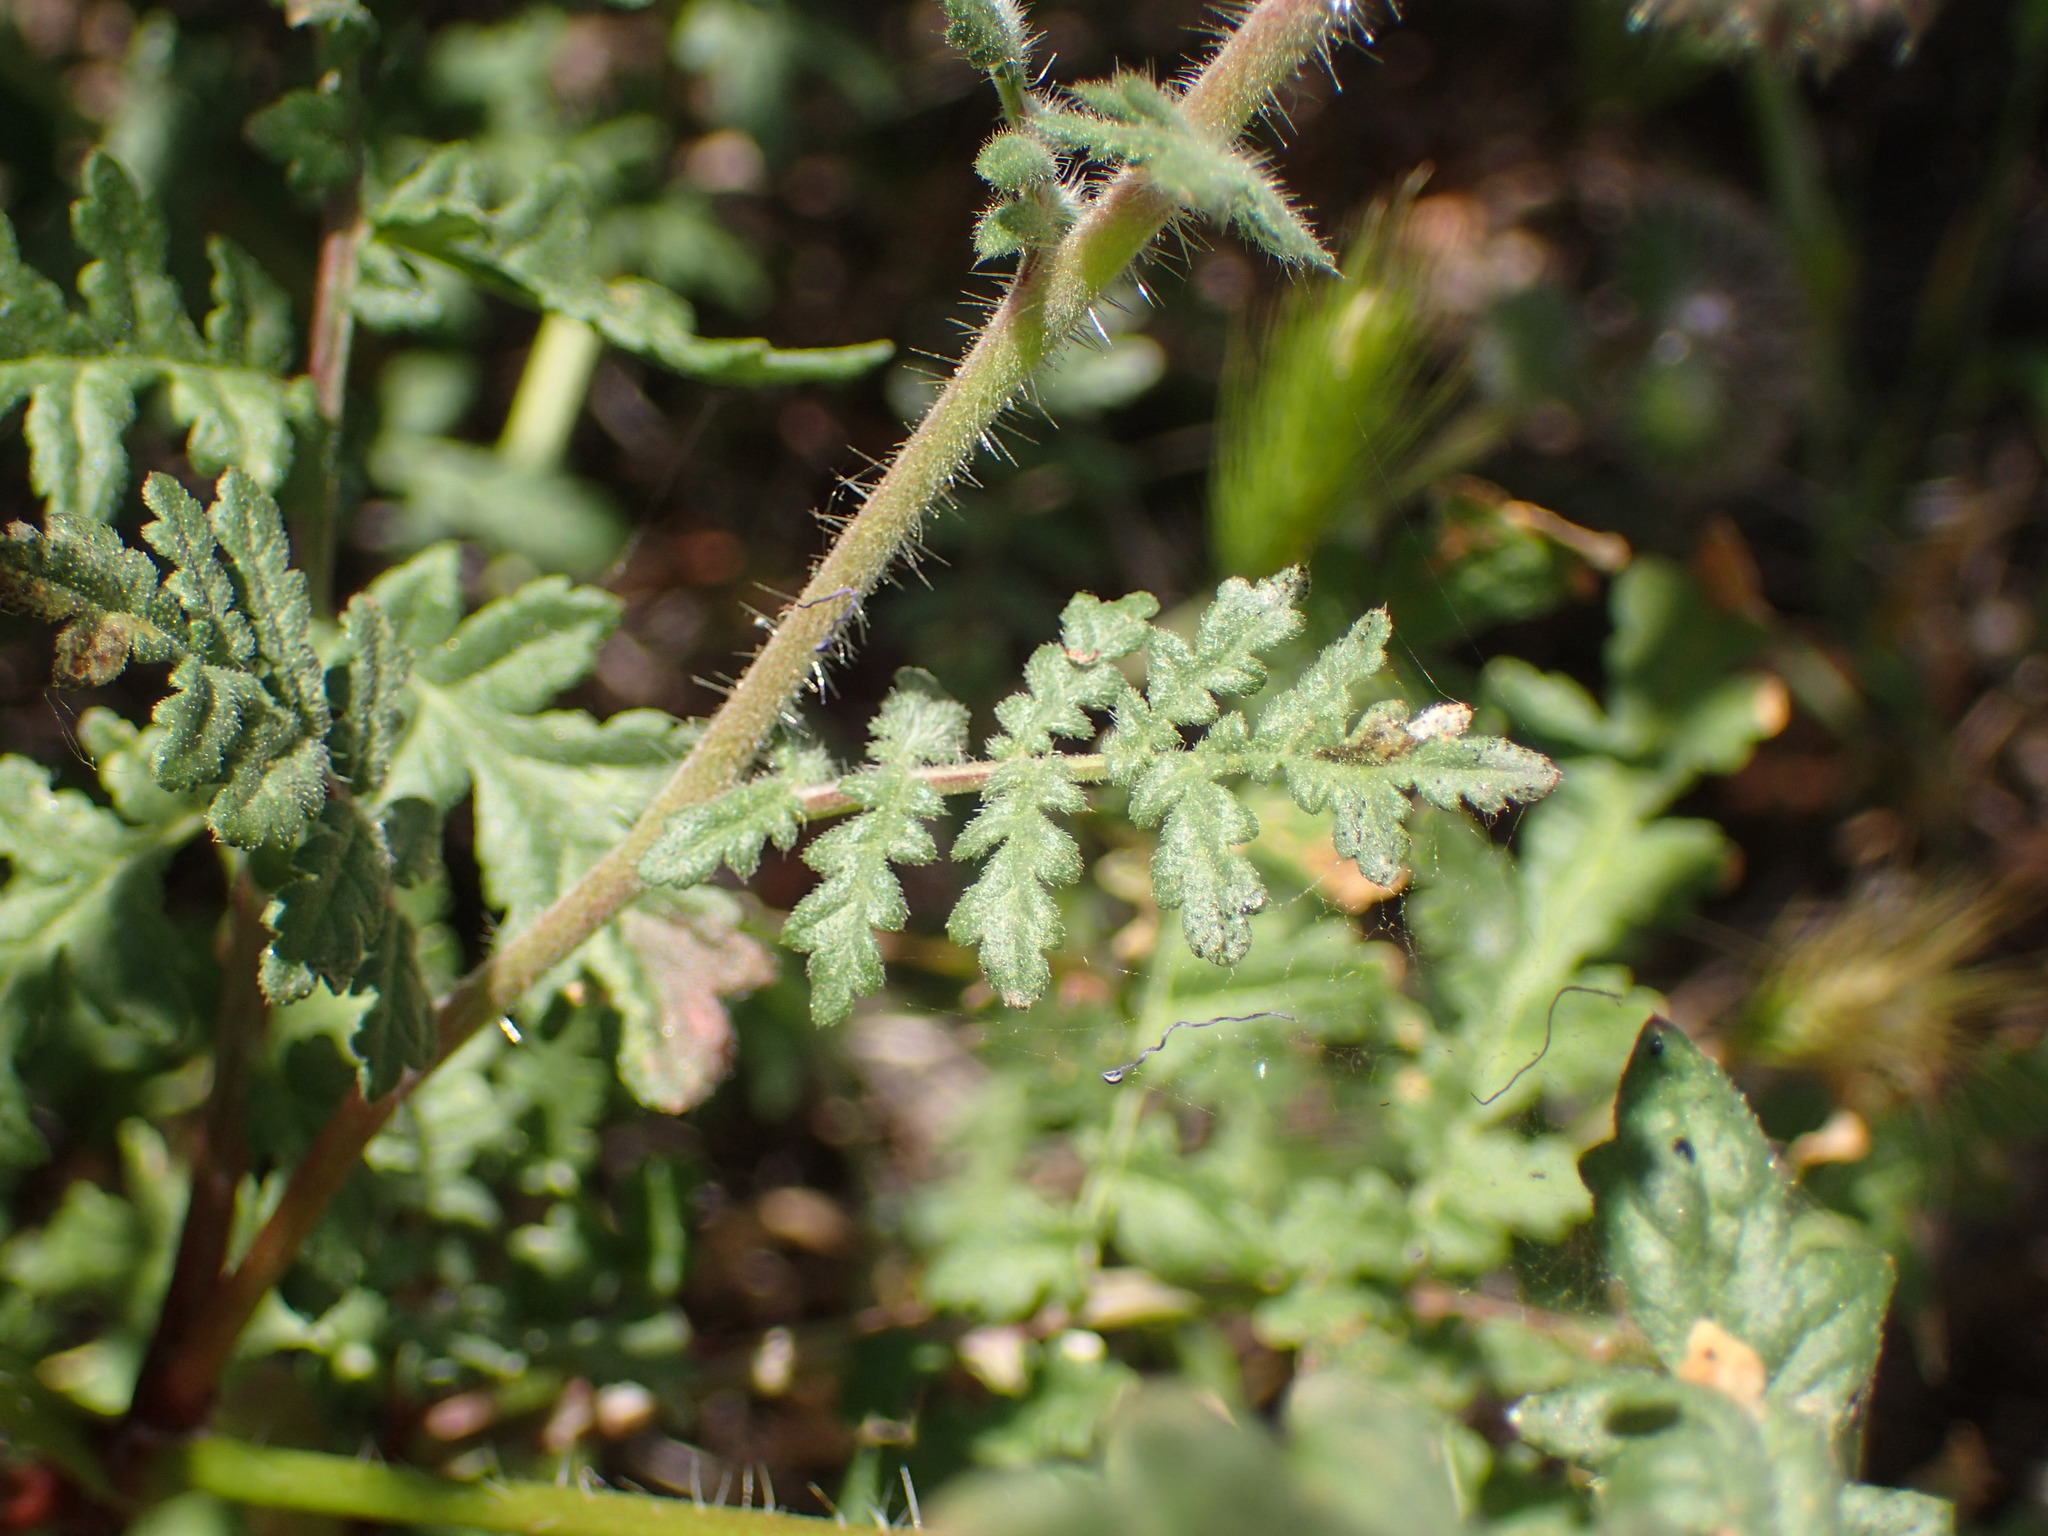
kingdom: Plantae
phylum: Tracheophyta
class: Magnoliopsida
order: Boraginales
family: Hydrophyllaceae
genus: Phacelia
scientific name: Phacelia tanacetifolia
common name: Phacelia
